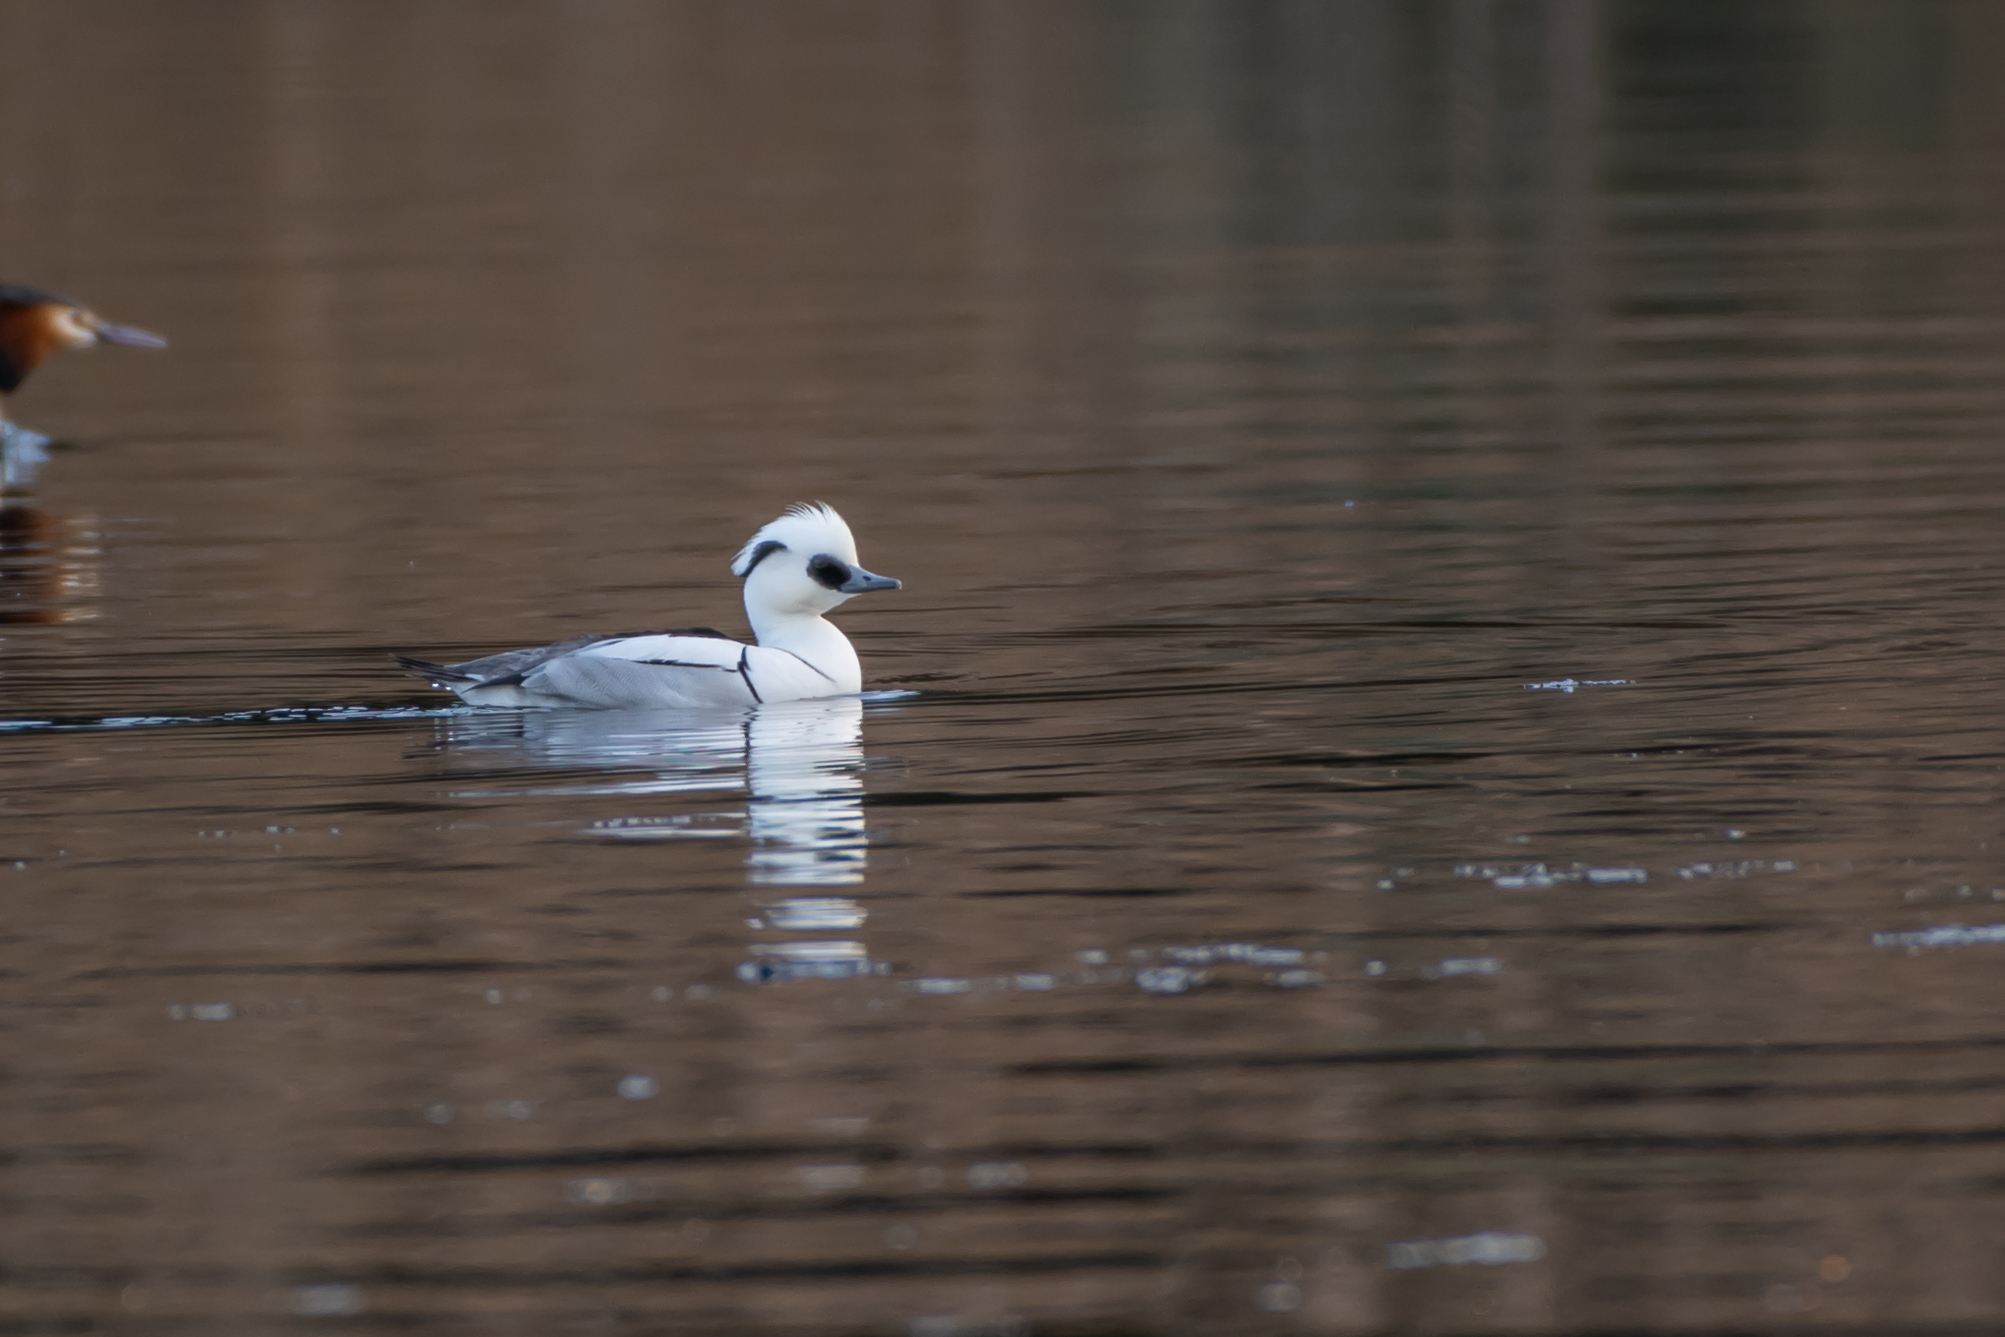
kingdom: Animalia
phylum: Chordata
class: Aves
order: Anseriformes
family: Anatidae
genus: Mergellus
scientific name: Mergellus albellus
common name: Smew
